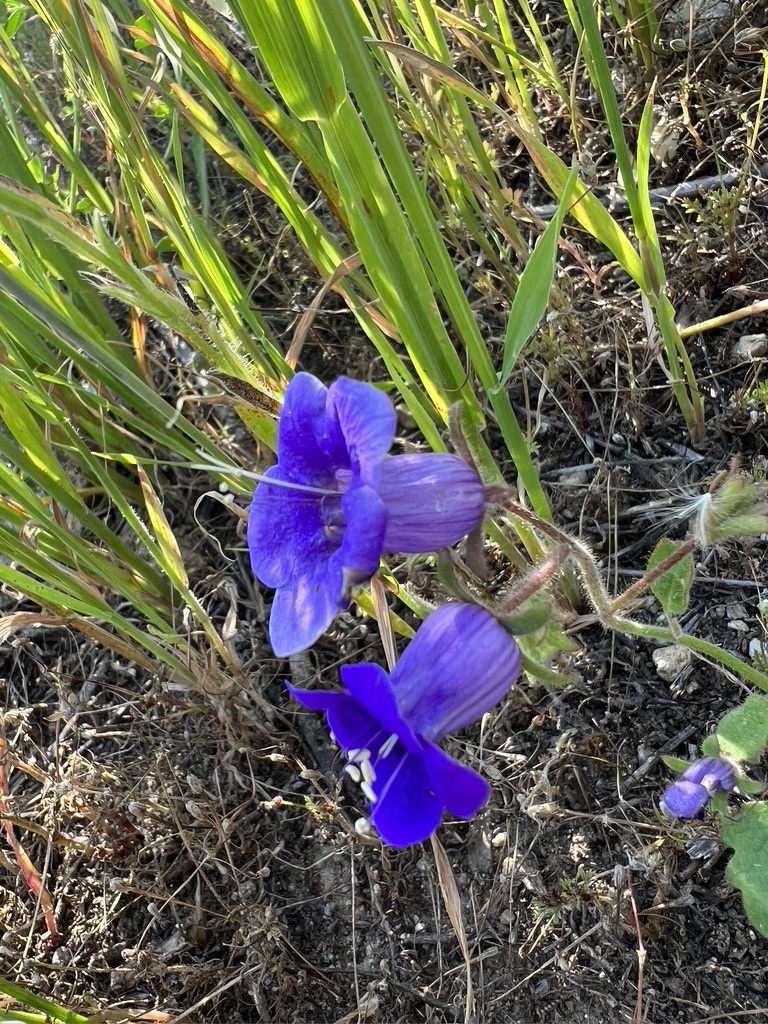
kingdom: Plantae
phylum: Tracheophyta
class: Magnoliopsida
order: Boraginales
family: Hydrophyllaceae
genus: Phacelia
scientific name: Phacelia minor
